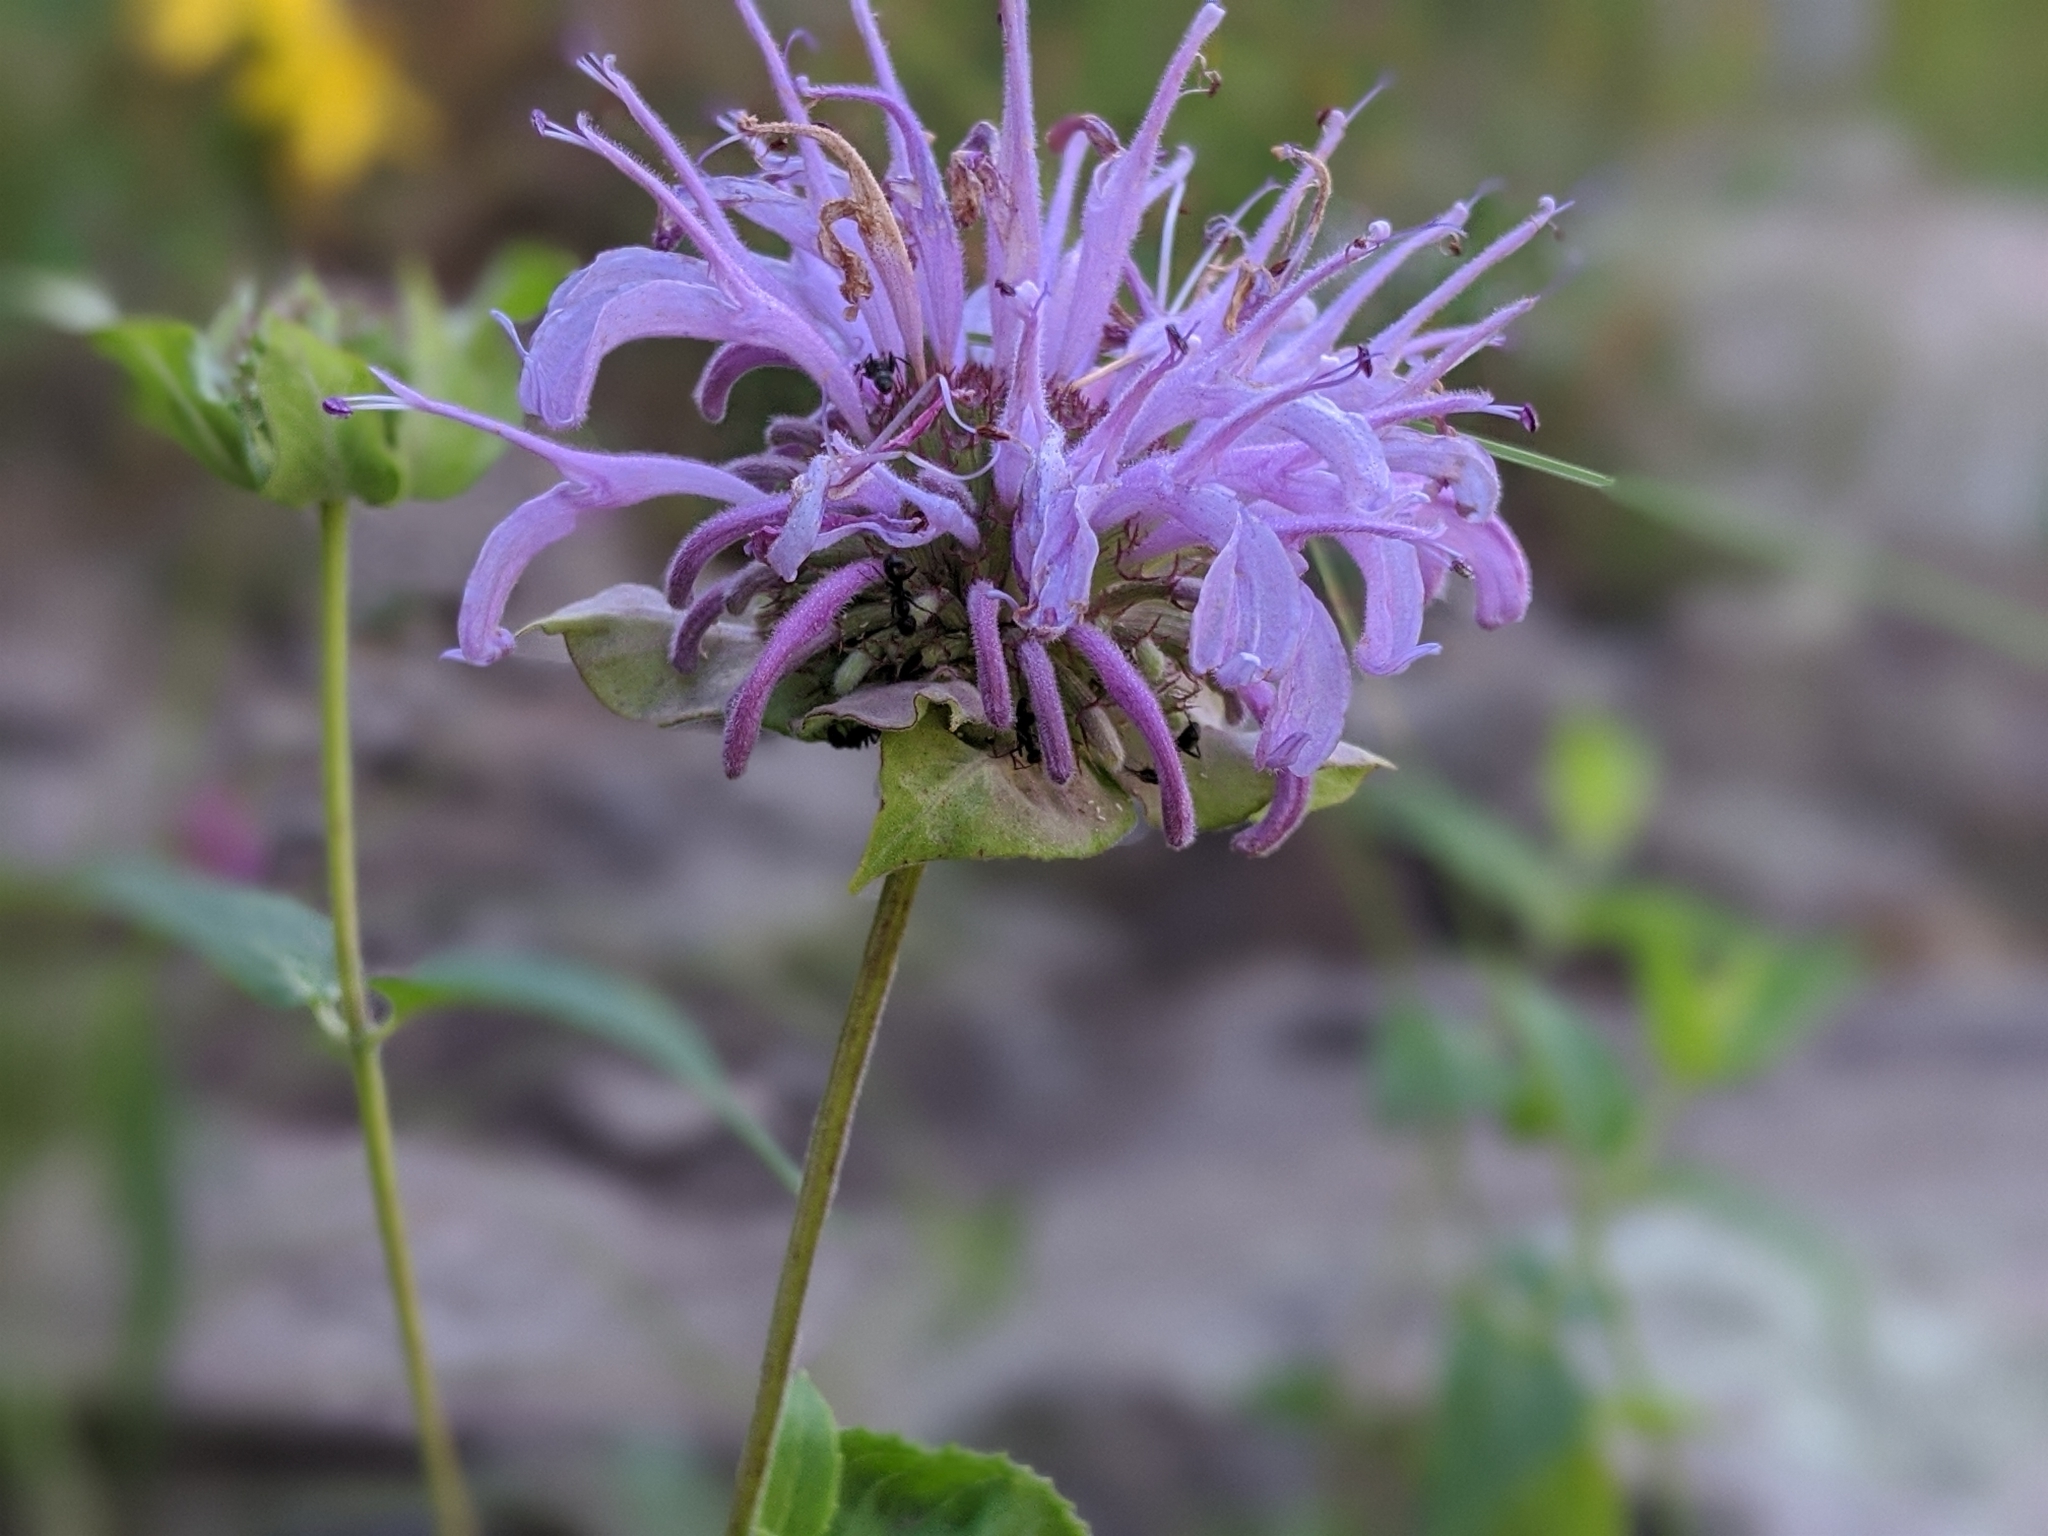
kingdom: Plantae
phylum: Tracheophyta
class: Magnoliopsida
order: Lamiales
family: Lamiaceae
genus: Monarda
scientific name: Monarda fistulosa
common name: Purple beebalm
